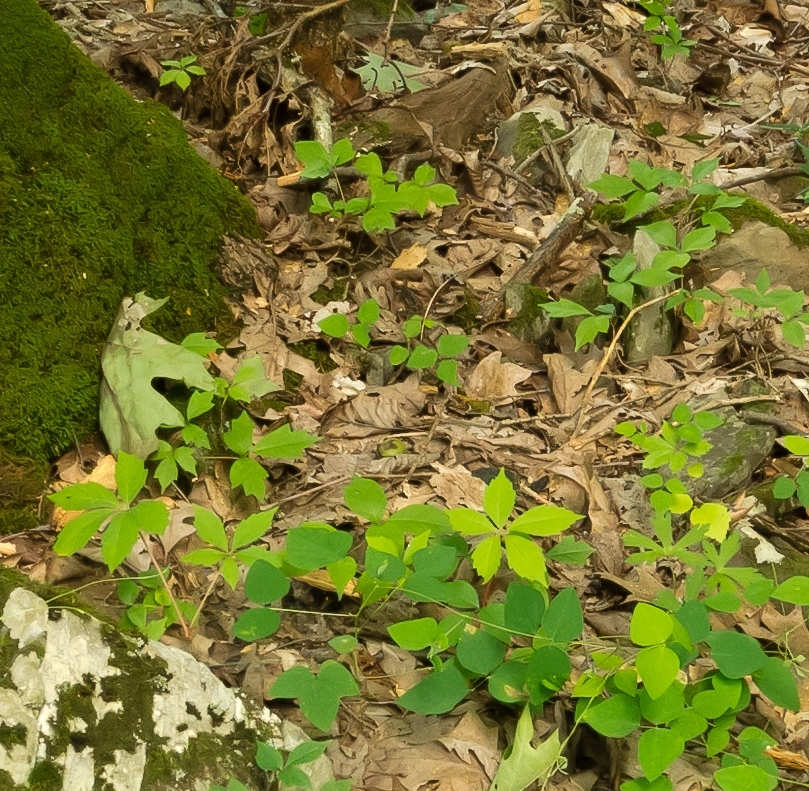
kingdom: Plantae
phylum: Tracheophyta
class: Magnoliopsida
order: Sapindales
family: Anacardiaceae
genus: Toxicodendron
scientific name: Toxicodendron radicans
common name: Poison ivy
